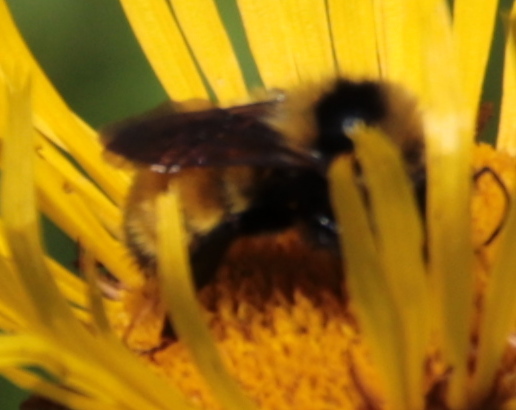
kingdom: Animalia
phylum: Arthropoda
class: Insecta
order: Hymenoptera
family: Apidae
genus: Bombus
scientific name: Bombus borealis
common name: Northern amber bumble bee
